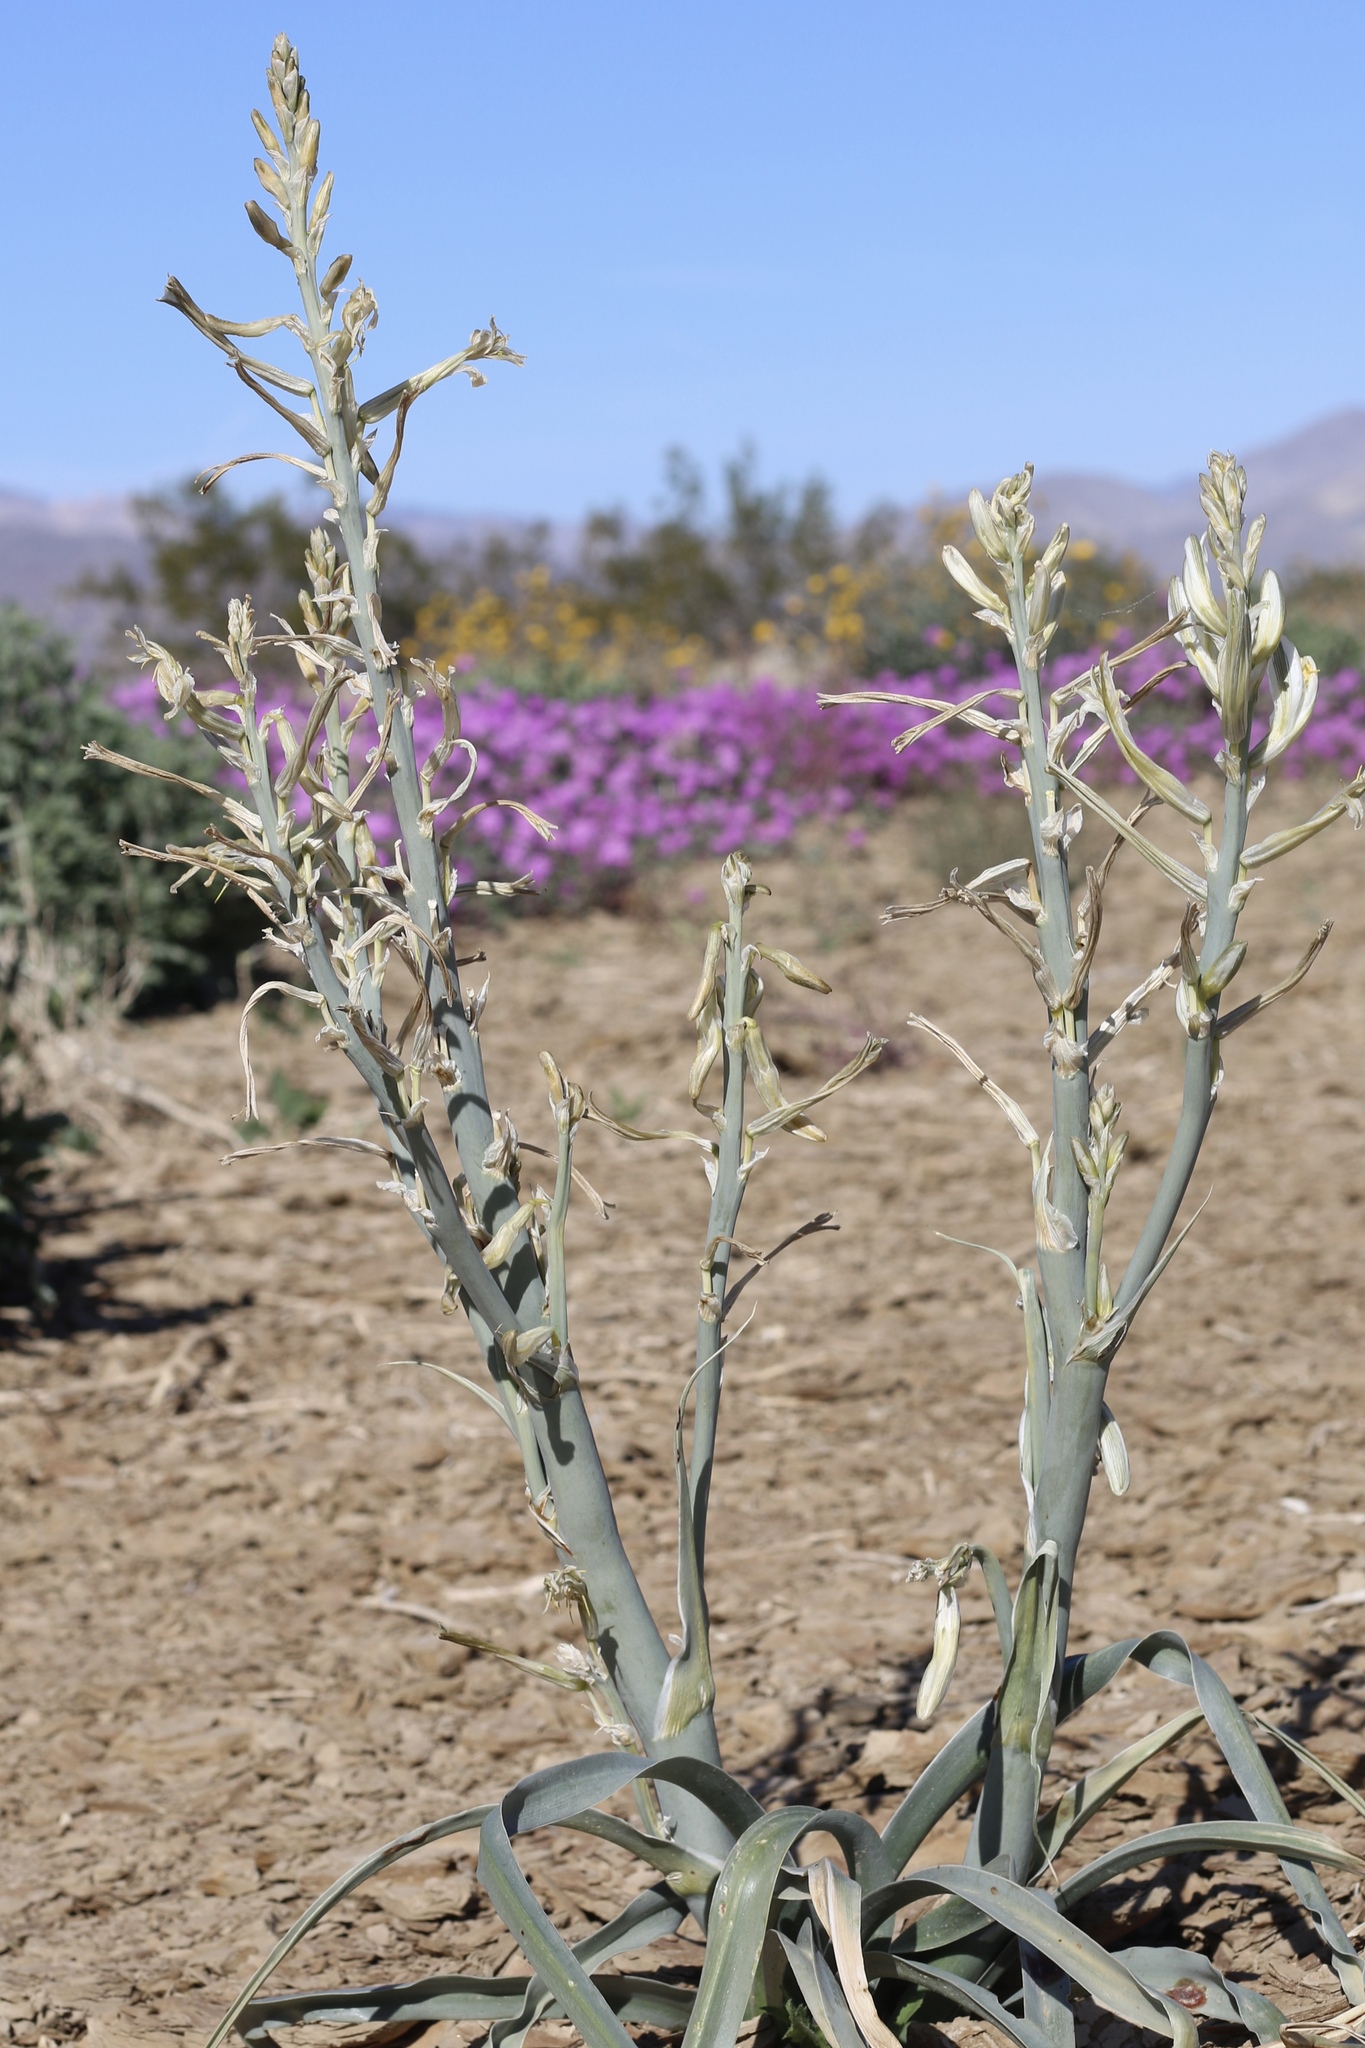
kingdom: Plantae
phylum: Tracheophyta
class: Liliopsida
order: Asparagales
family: Asparagaceae
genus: Hesperocallis
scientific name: Hesperocallis undulata
